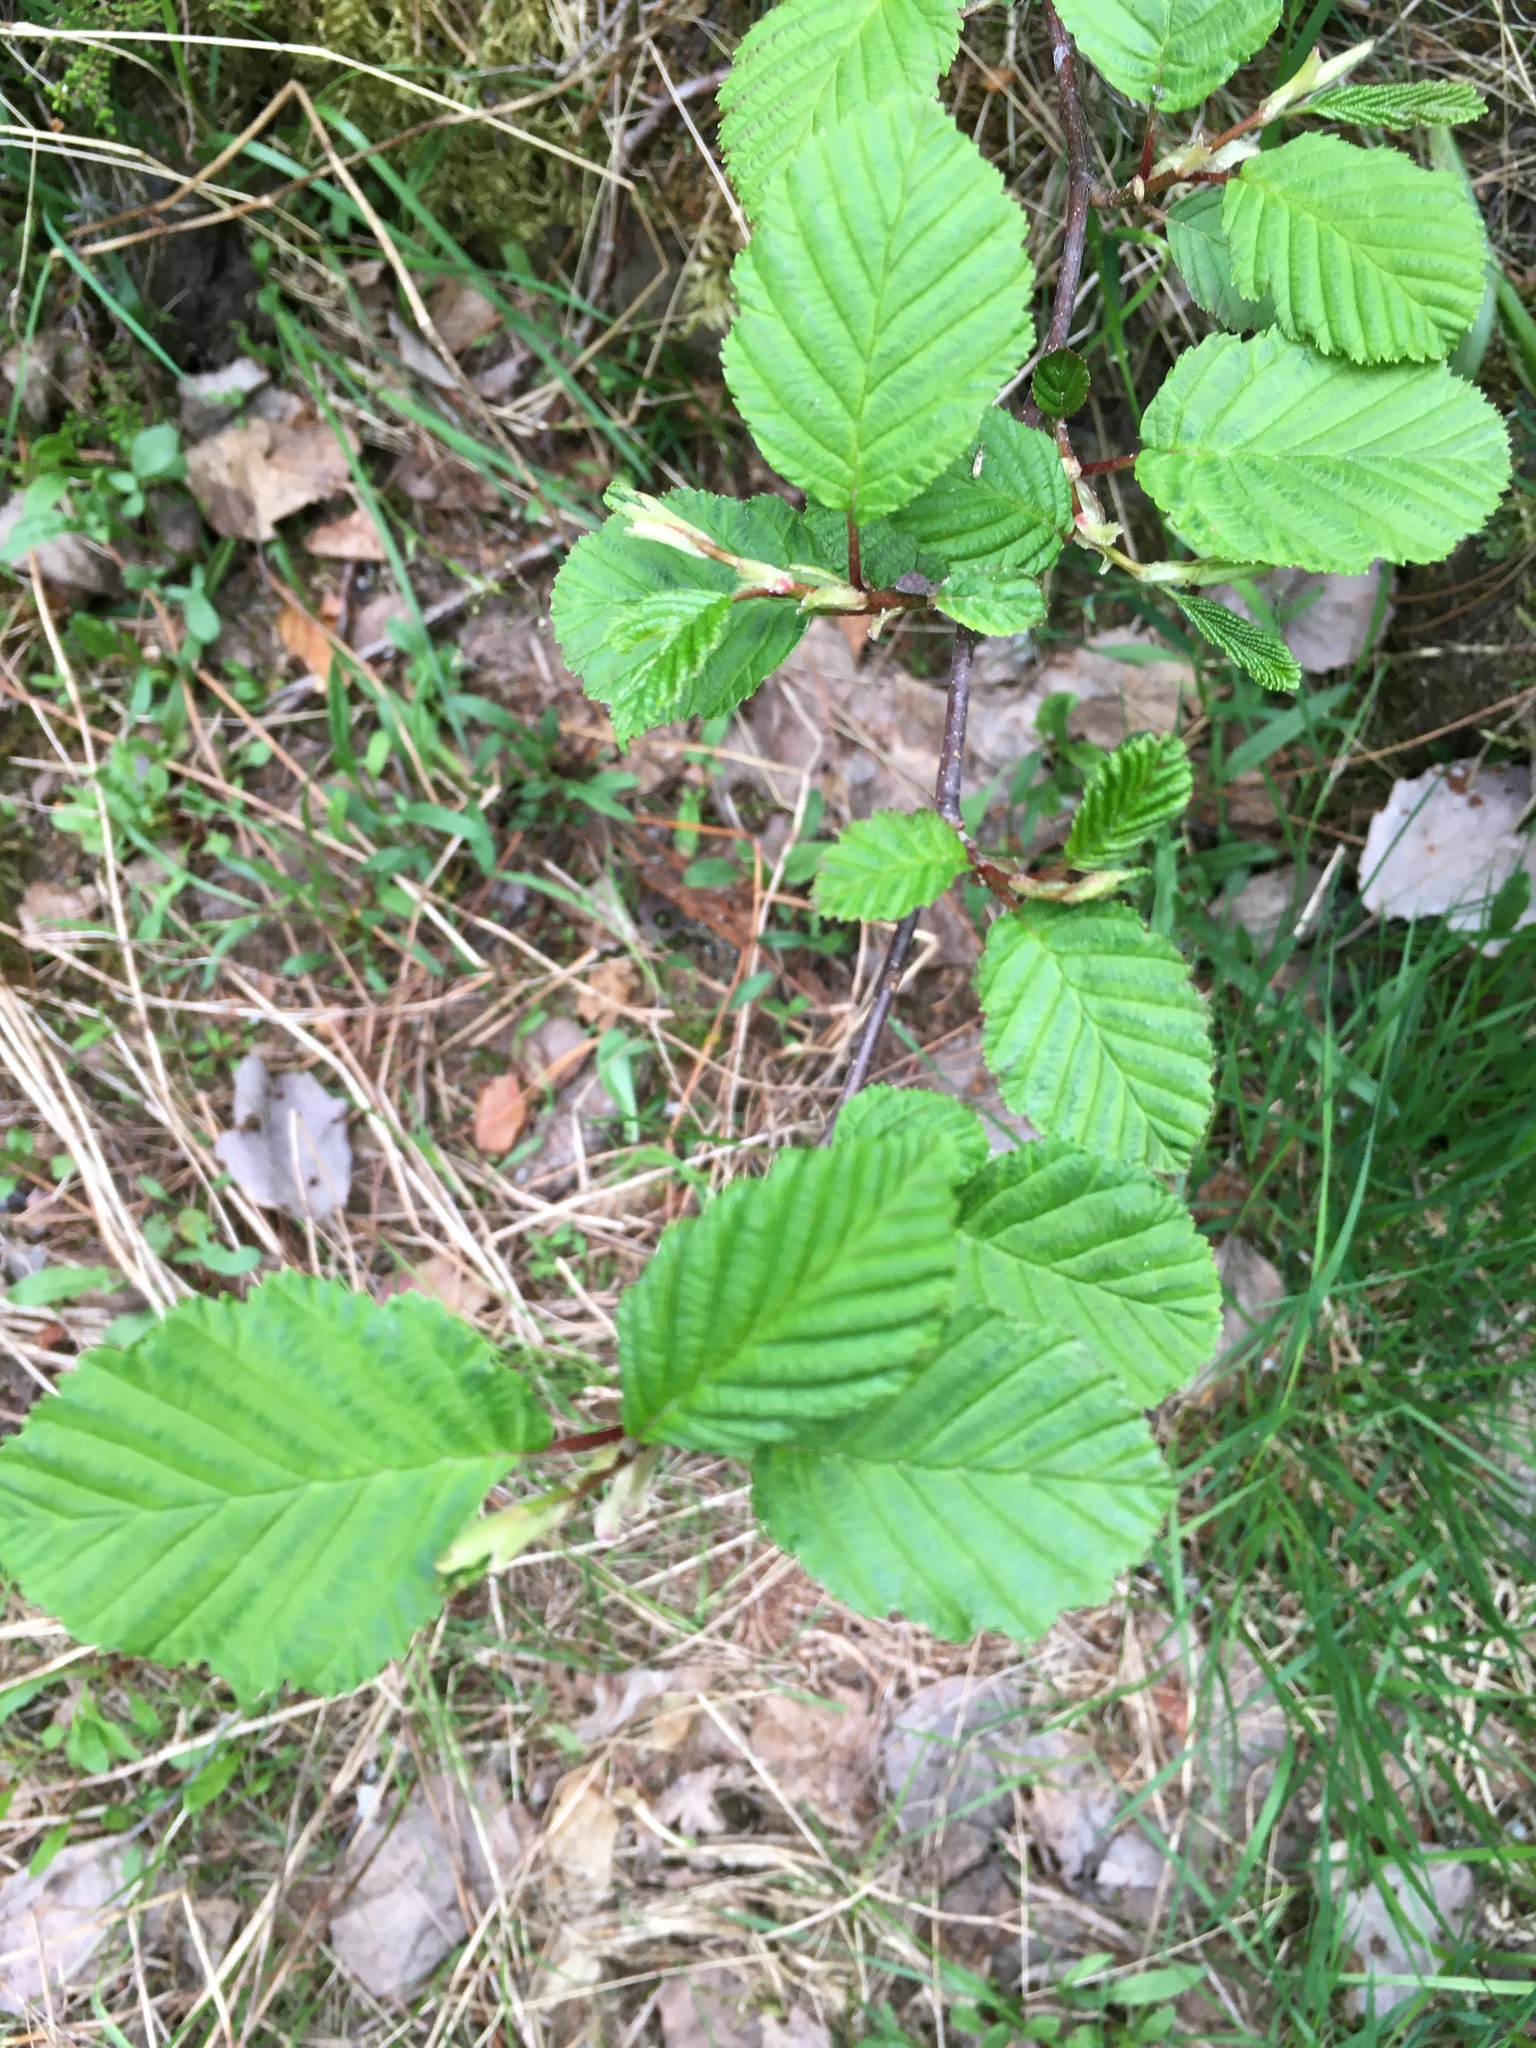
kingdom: Plantae
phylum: Tracheophyta
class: Magnoliopsida
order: Fagales
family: Betulaceae
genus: Alnus
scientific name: Alnus incana
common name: Grey alder
